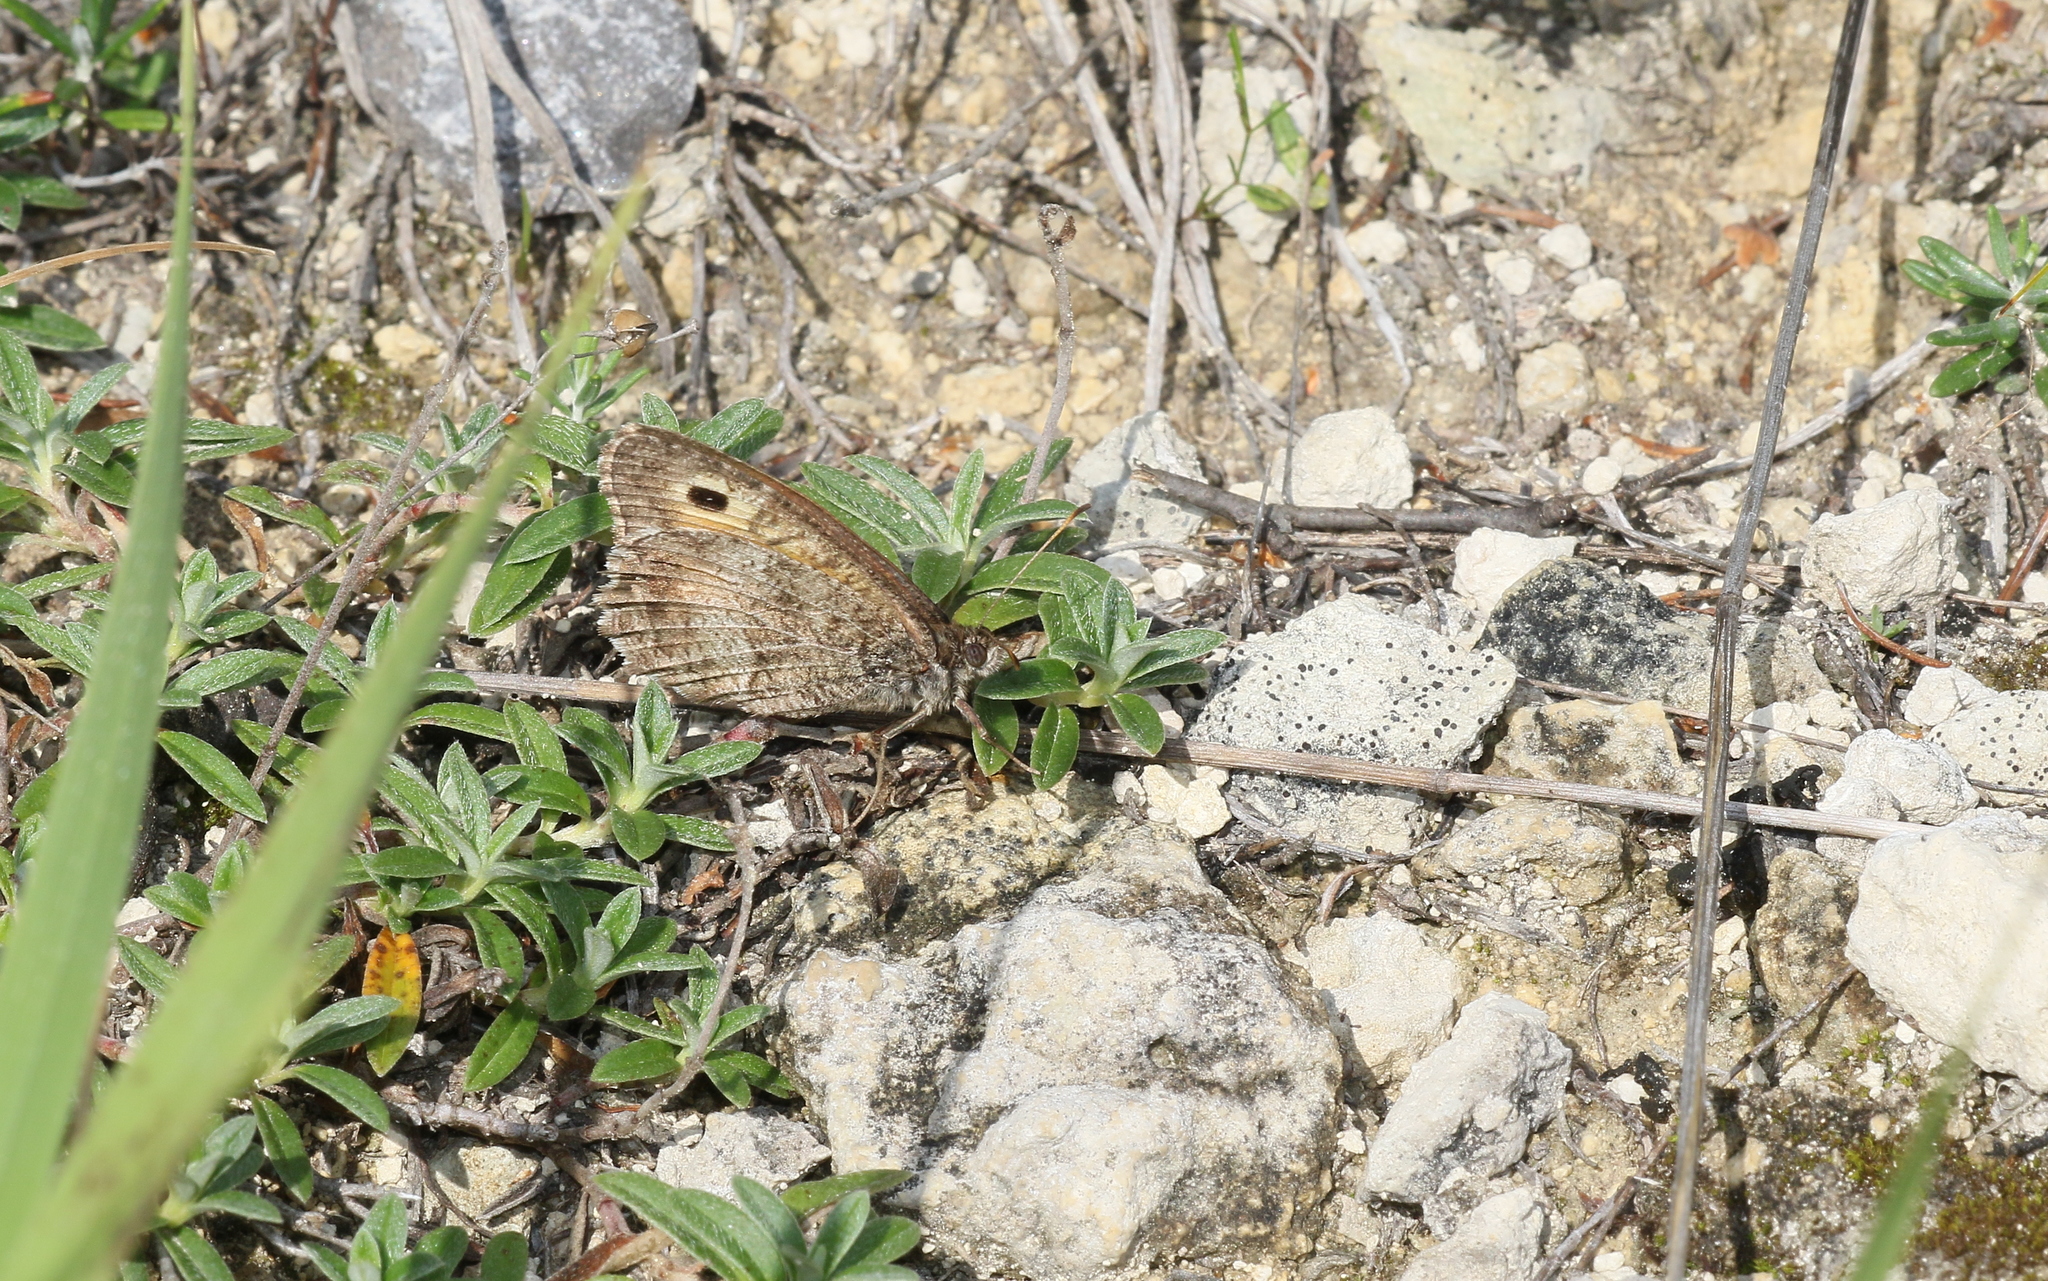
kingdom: Animalia
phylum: Arthropoda
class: Insecta
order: Lepidoptera
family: Nymphalidae
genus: Arethusana
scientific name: Arethusana arethusa
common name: False grayling
